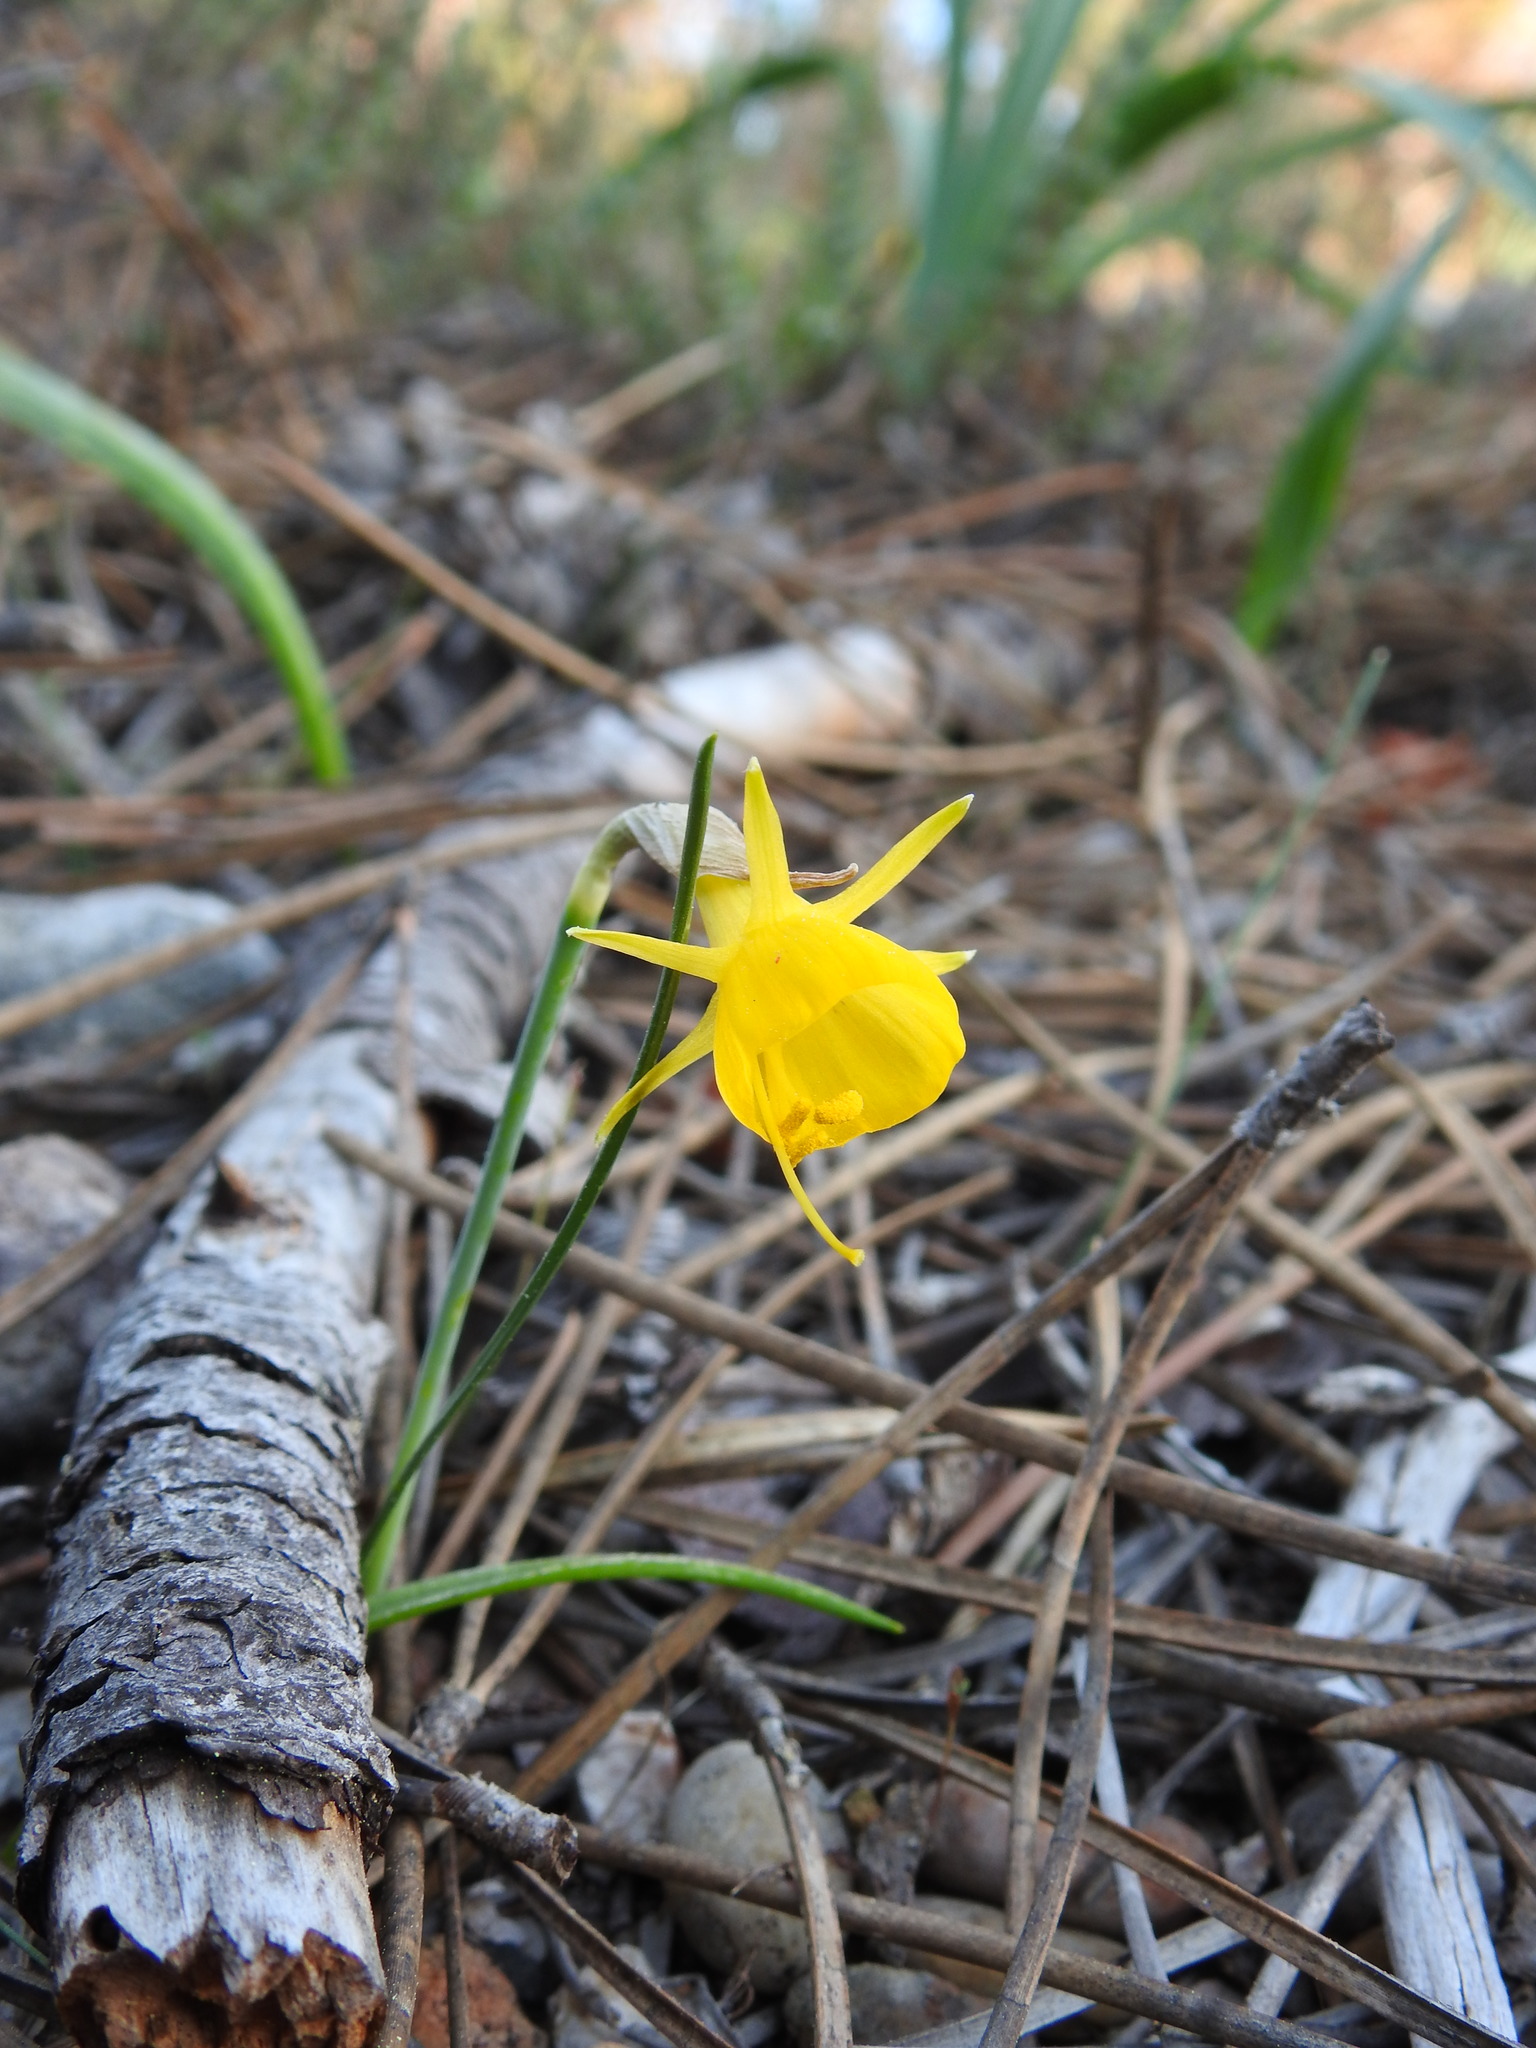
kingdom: Plantae
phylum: Tracheophyta
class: Liliopsida
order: Asparagales
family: Amaryllidaceae
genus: Narcissus
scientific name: Narcissus obesus
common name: Hoop petticoat daffodil
